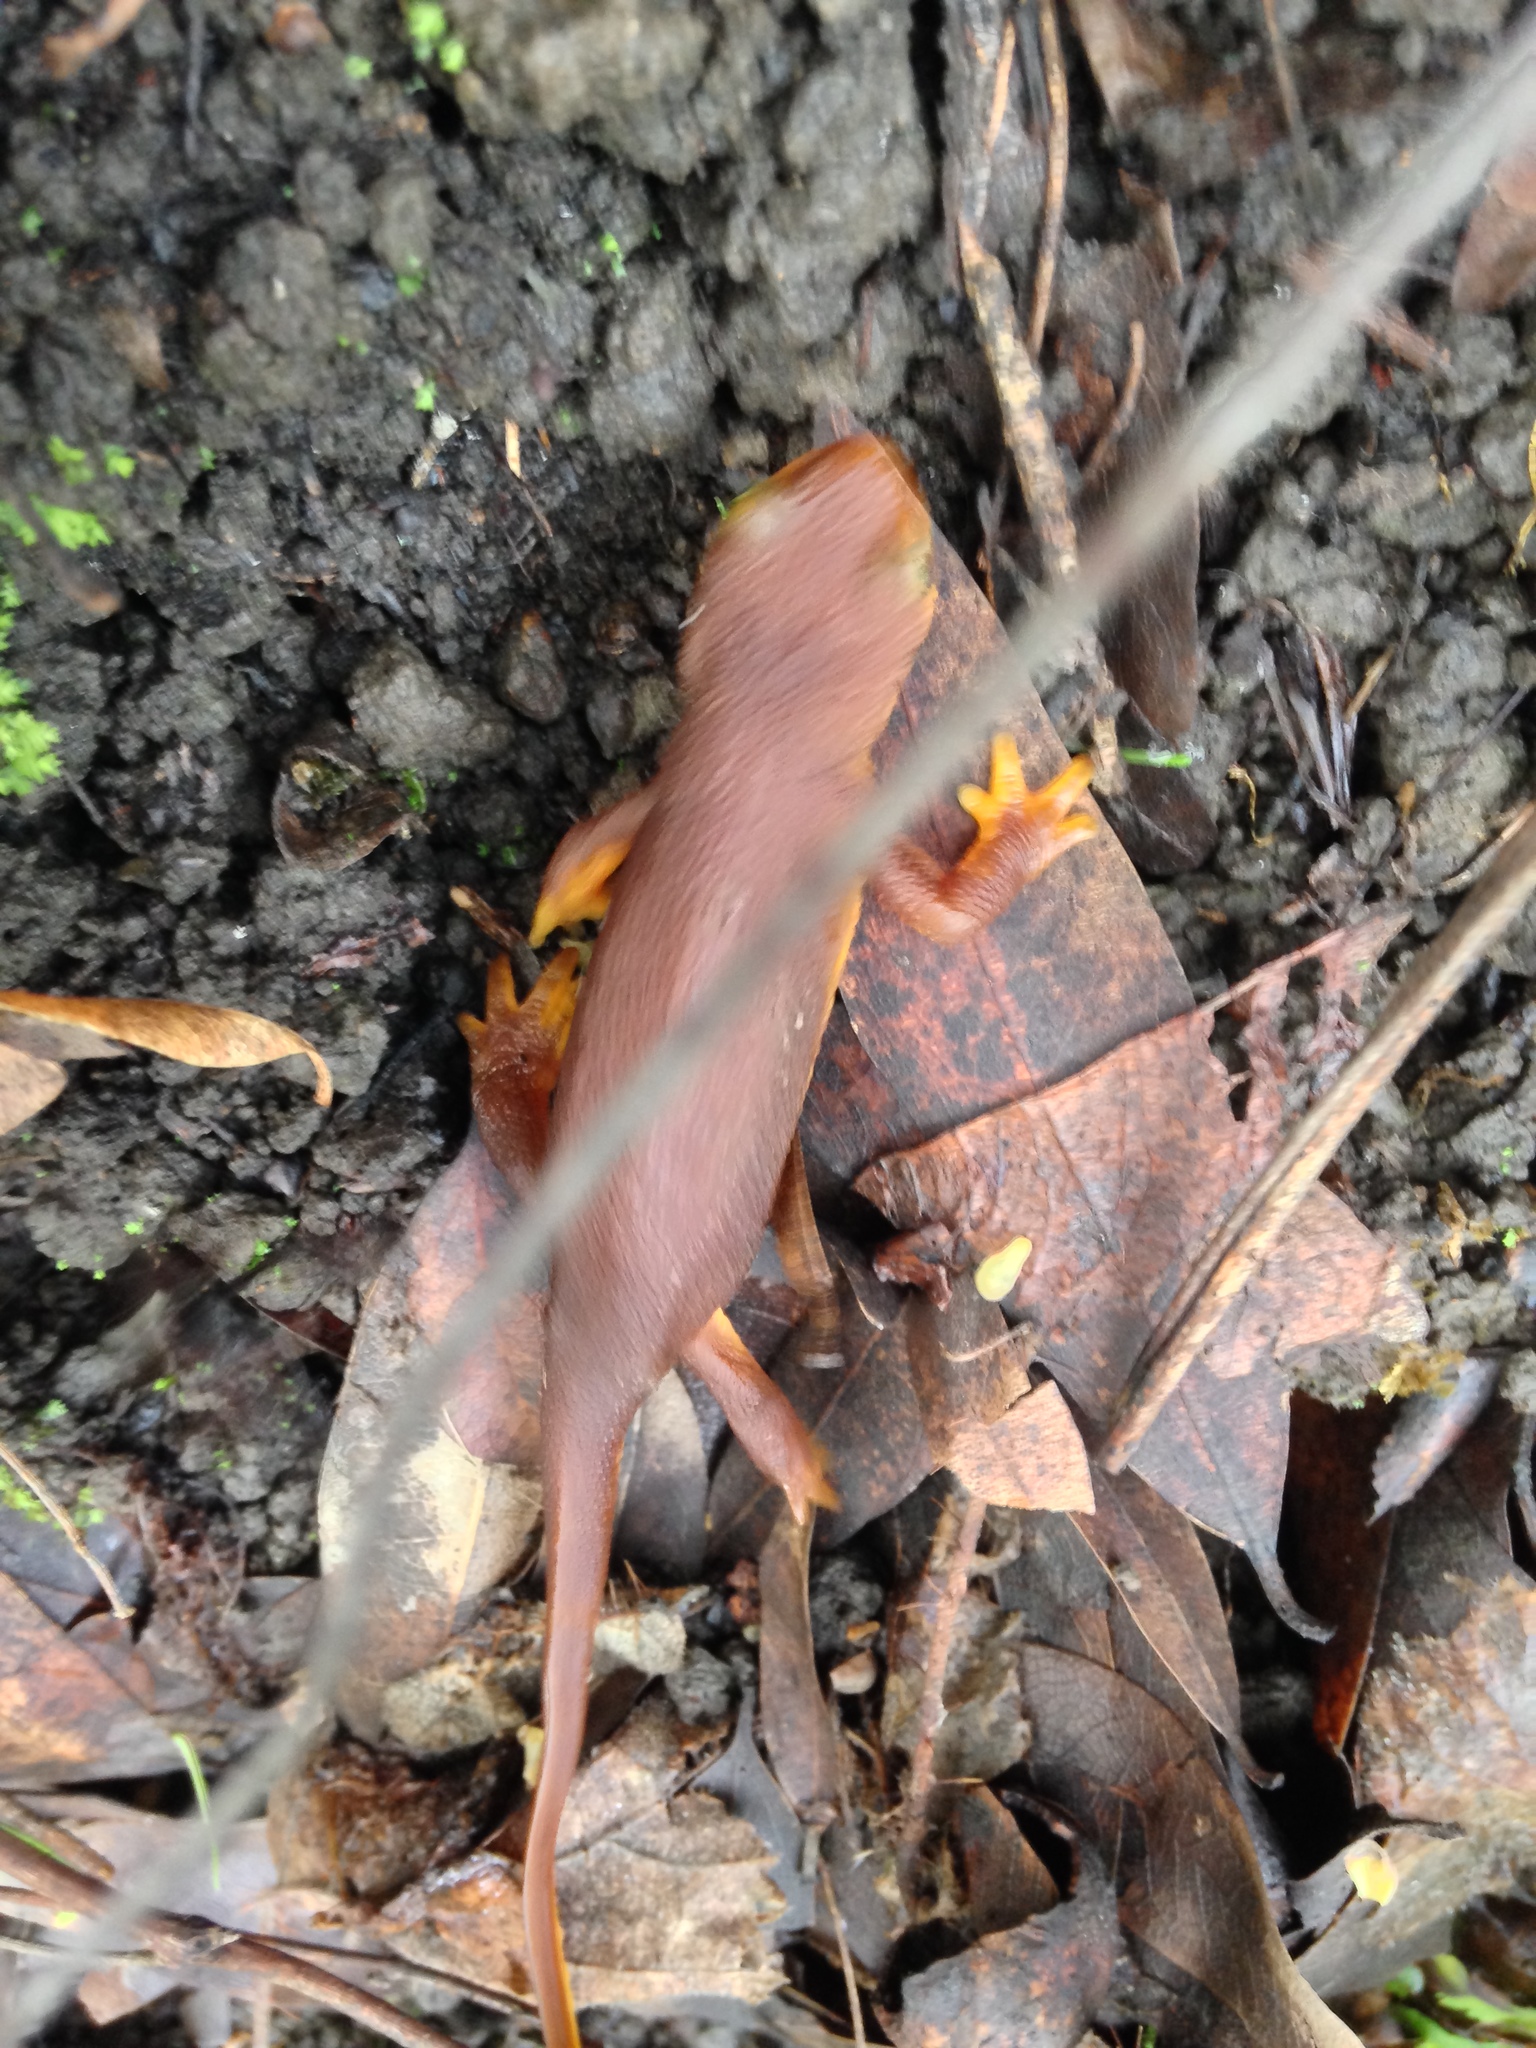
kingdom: Animalia
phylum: Chordata
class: Amphibia
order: Caudata
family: Salamandridae
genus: Taricha
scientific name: Taricha torosa
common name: California newt
